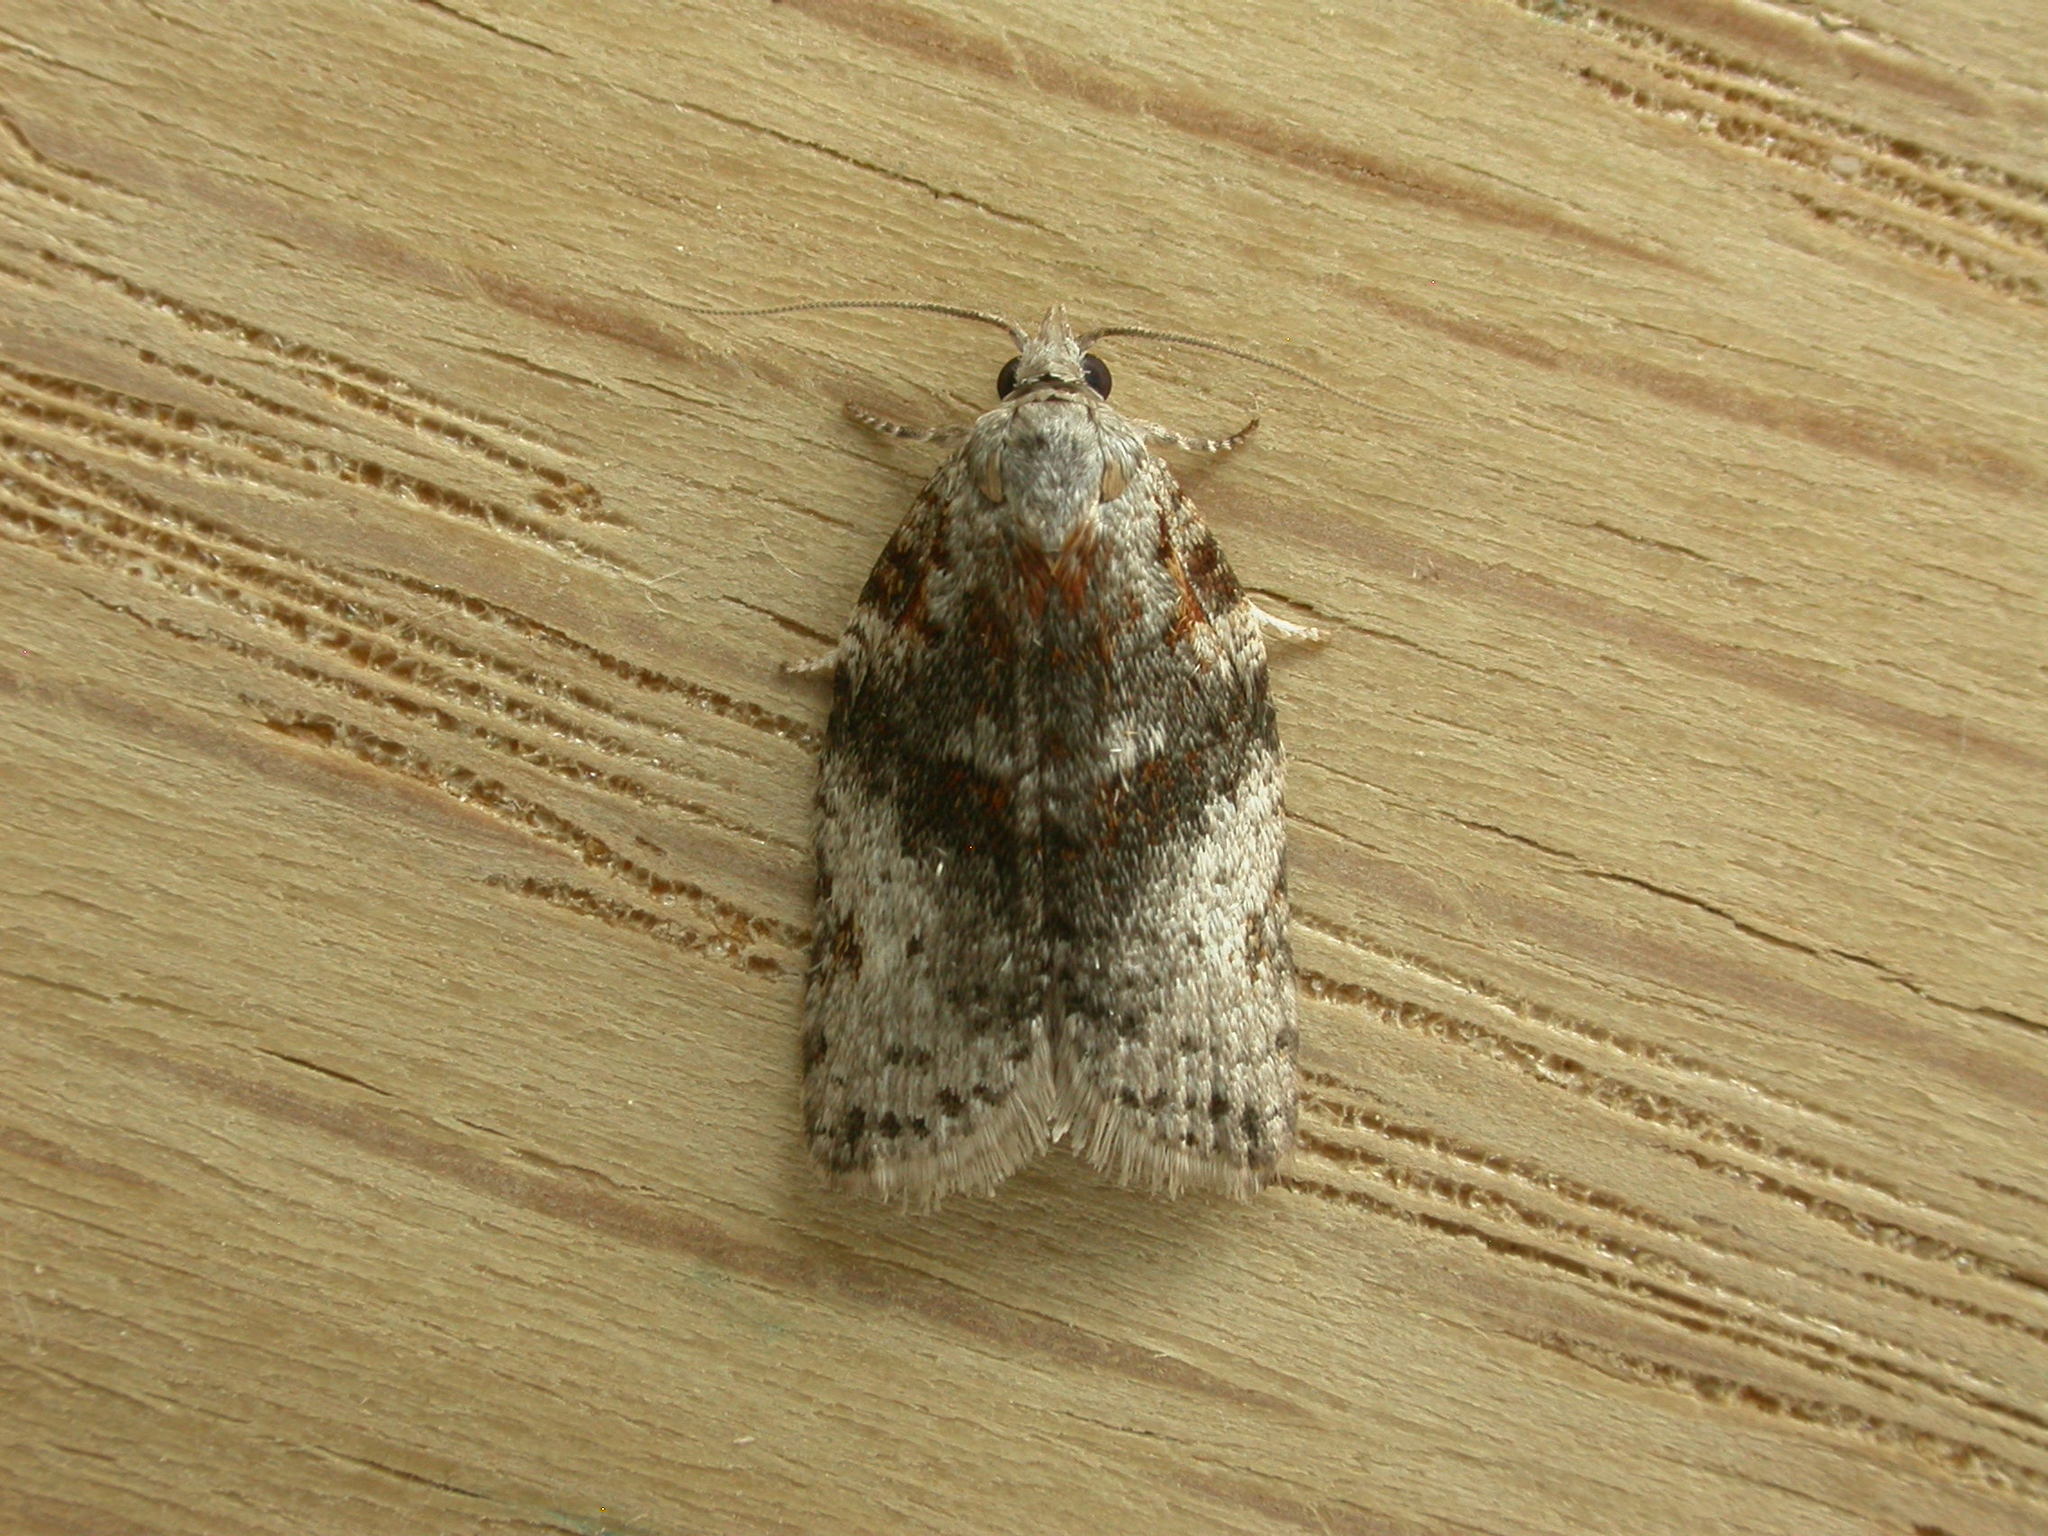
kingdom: Animalia
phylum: Arthropoda
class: Insecta
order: Lepidoptera
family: Tortricidae
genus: Isotenes
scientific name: Isotenes miserana
